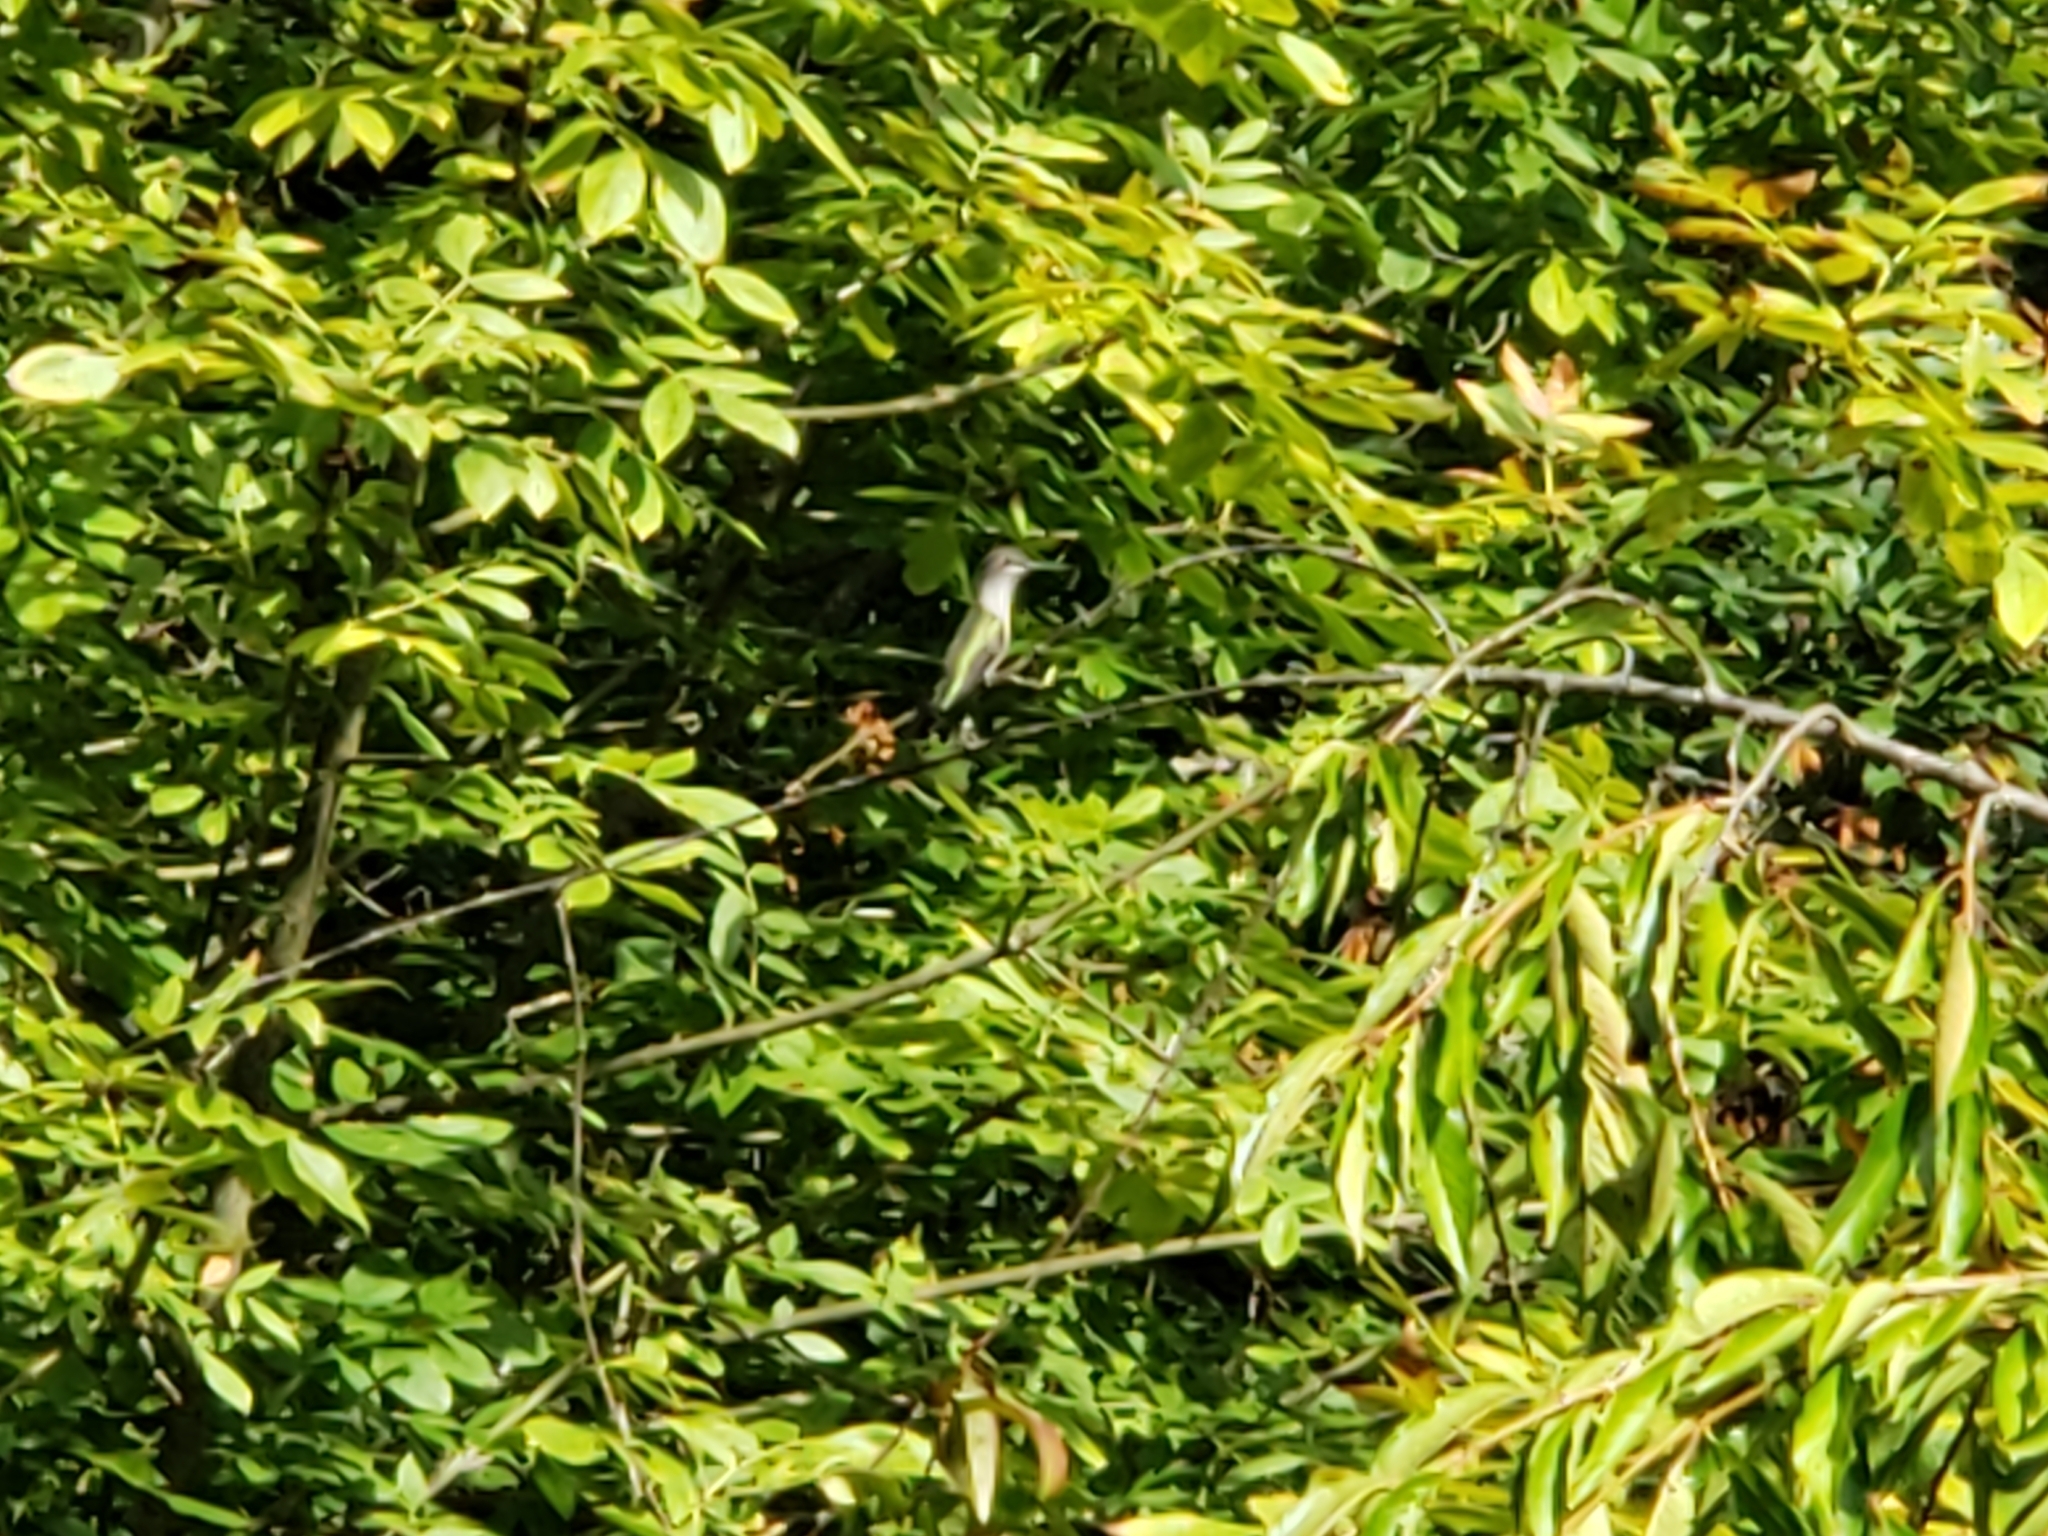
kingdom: Animalia
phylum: Chordata
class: Aves
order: Apodiformes
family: Trochilidae
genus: Calypte
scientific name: Calypte anna
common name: Anna's hummingbird
